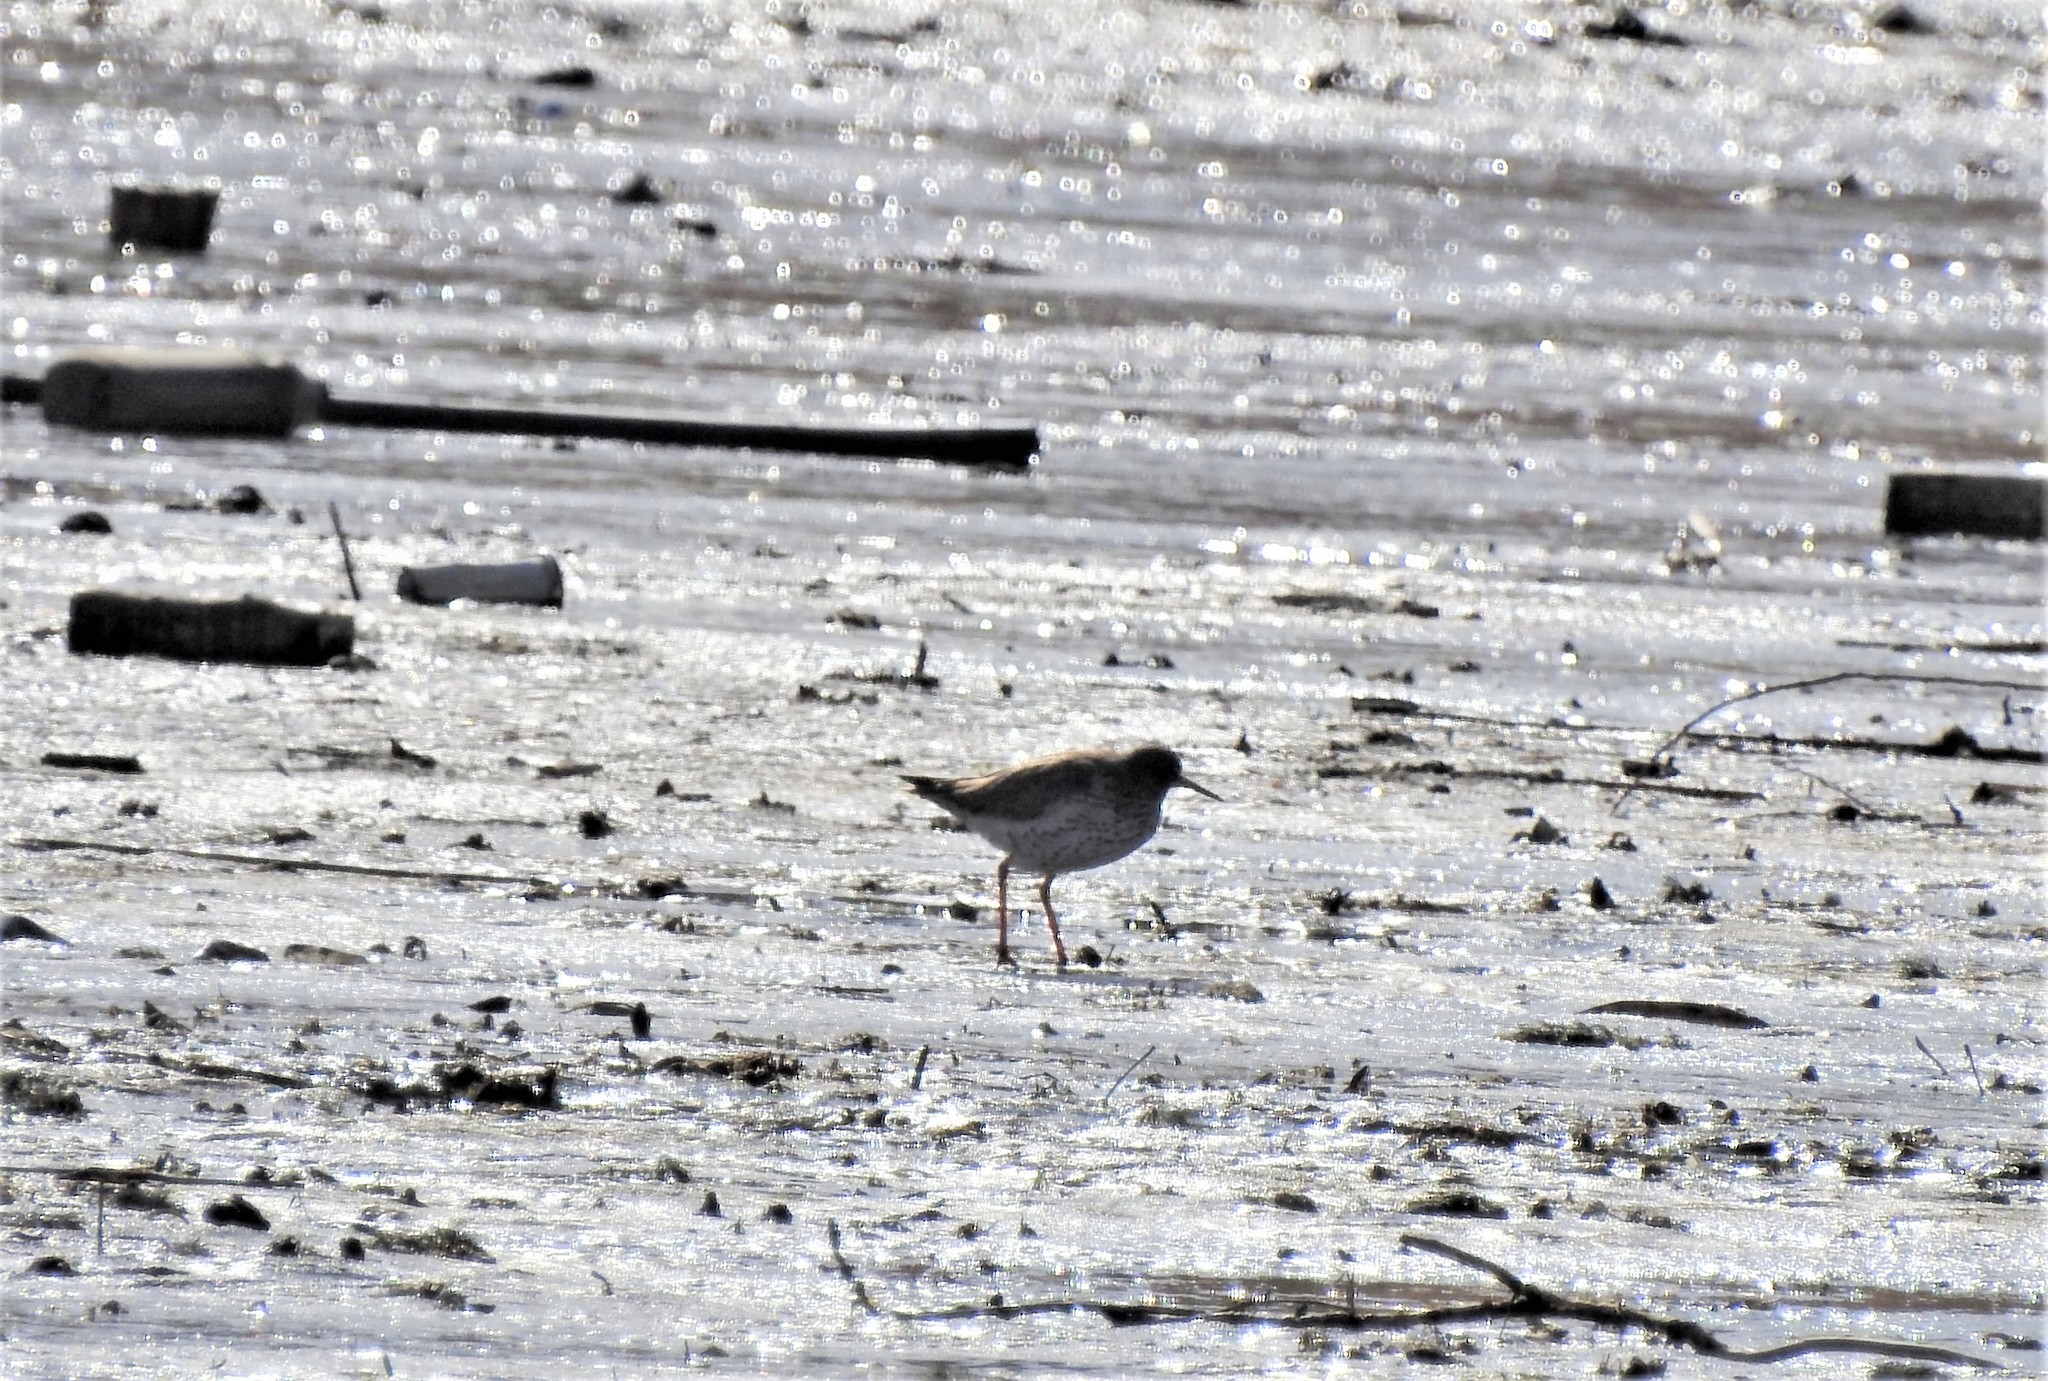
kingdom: Animalia
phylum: Chordata
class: Aves
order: Charadriiformes
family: Scolopacidae
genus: Tringa
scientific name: Tringa totanus
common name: Common redshank
